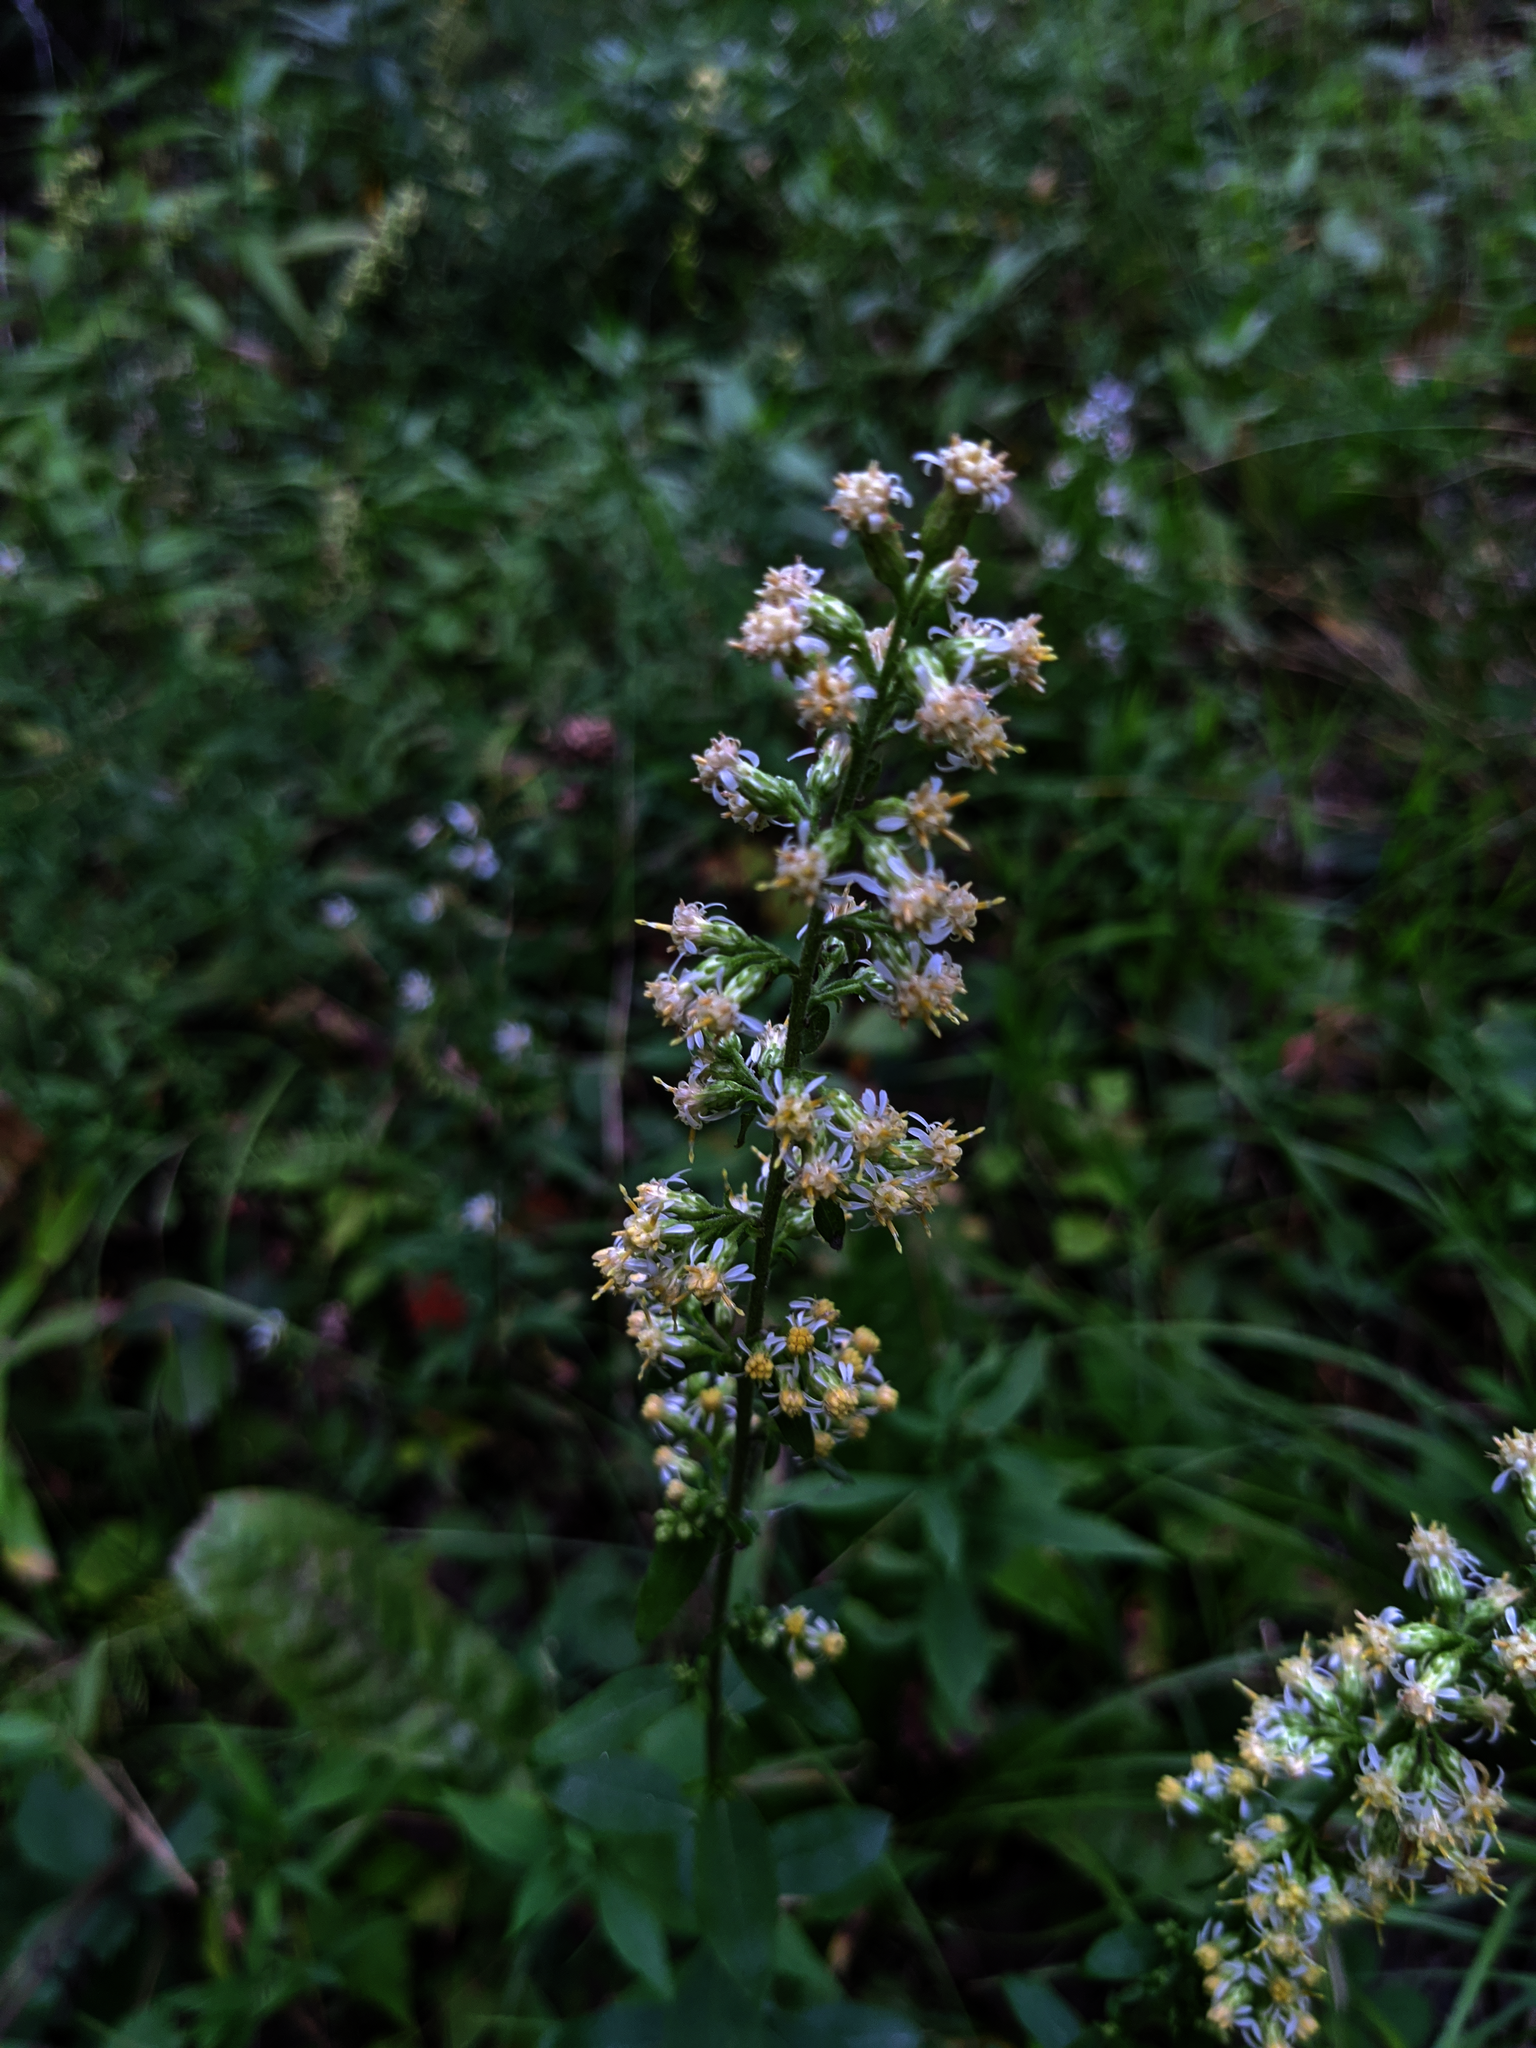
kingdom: Plantae
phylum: Tracheophyta
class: Magnoliopsida
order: Asterales
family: Asteraceae
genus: Solidago
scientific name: Solidago bicolor
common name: Silverrod
